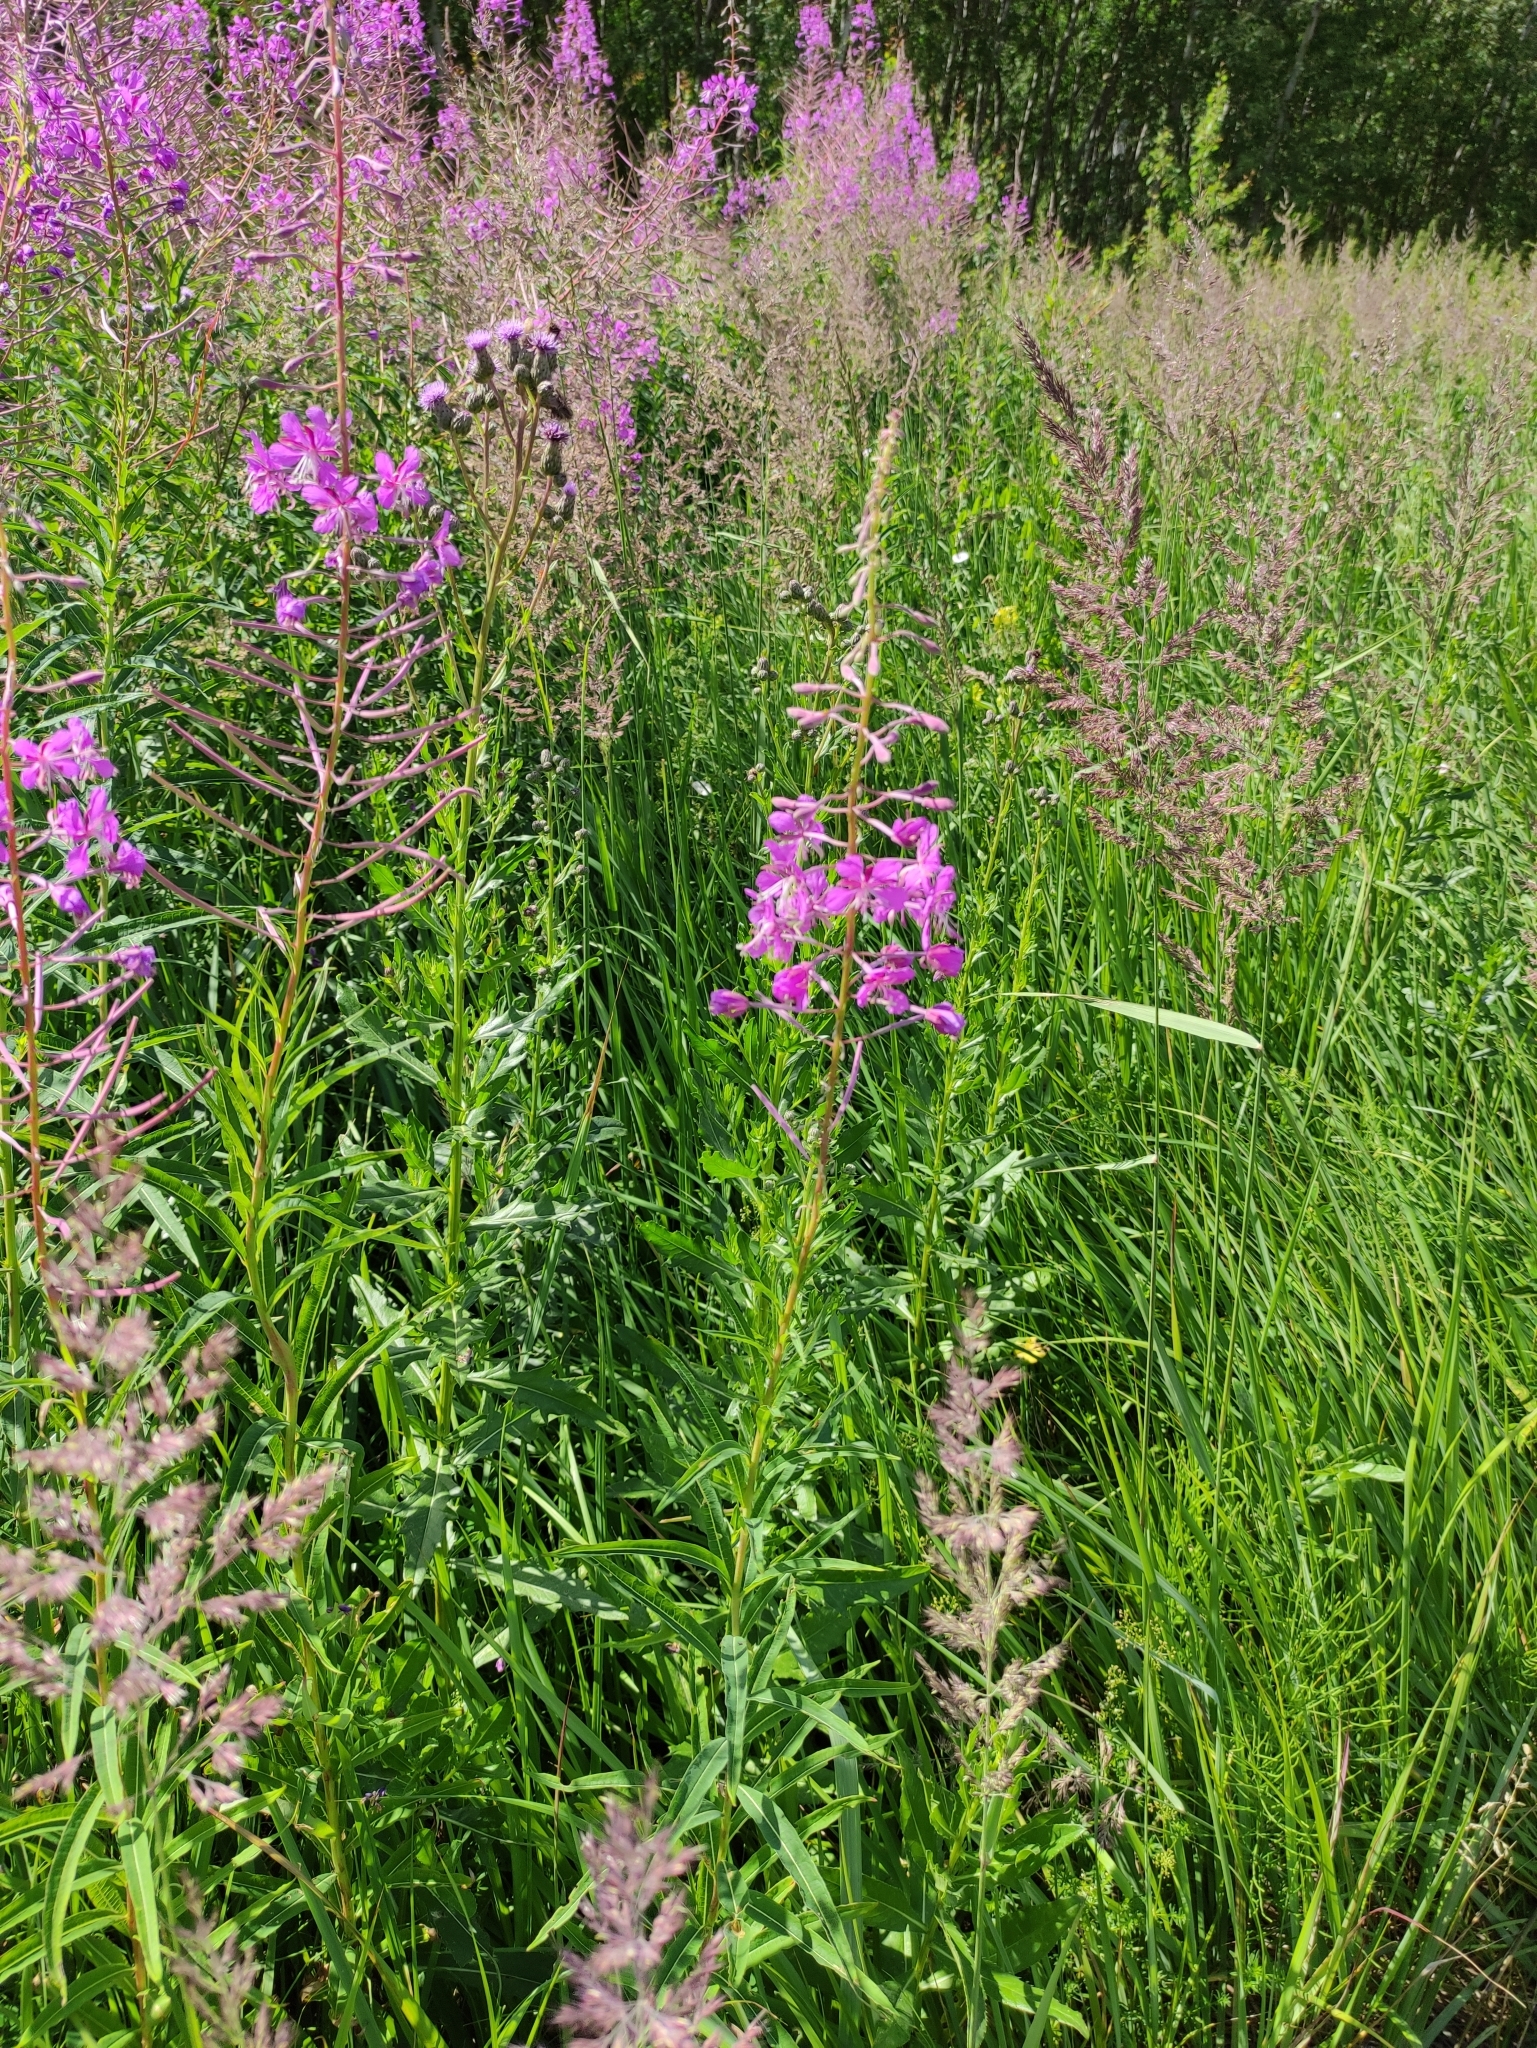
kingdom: Plantae
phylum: Tracheophyta
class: Magnoliopsida
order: Myrtales
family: Onagraceae
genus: Chamaenerion
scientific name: Chamaenerion angustifolium
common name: Fireweed
